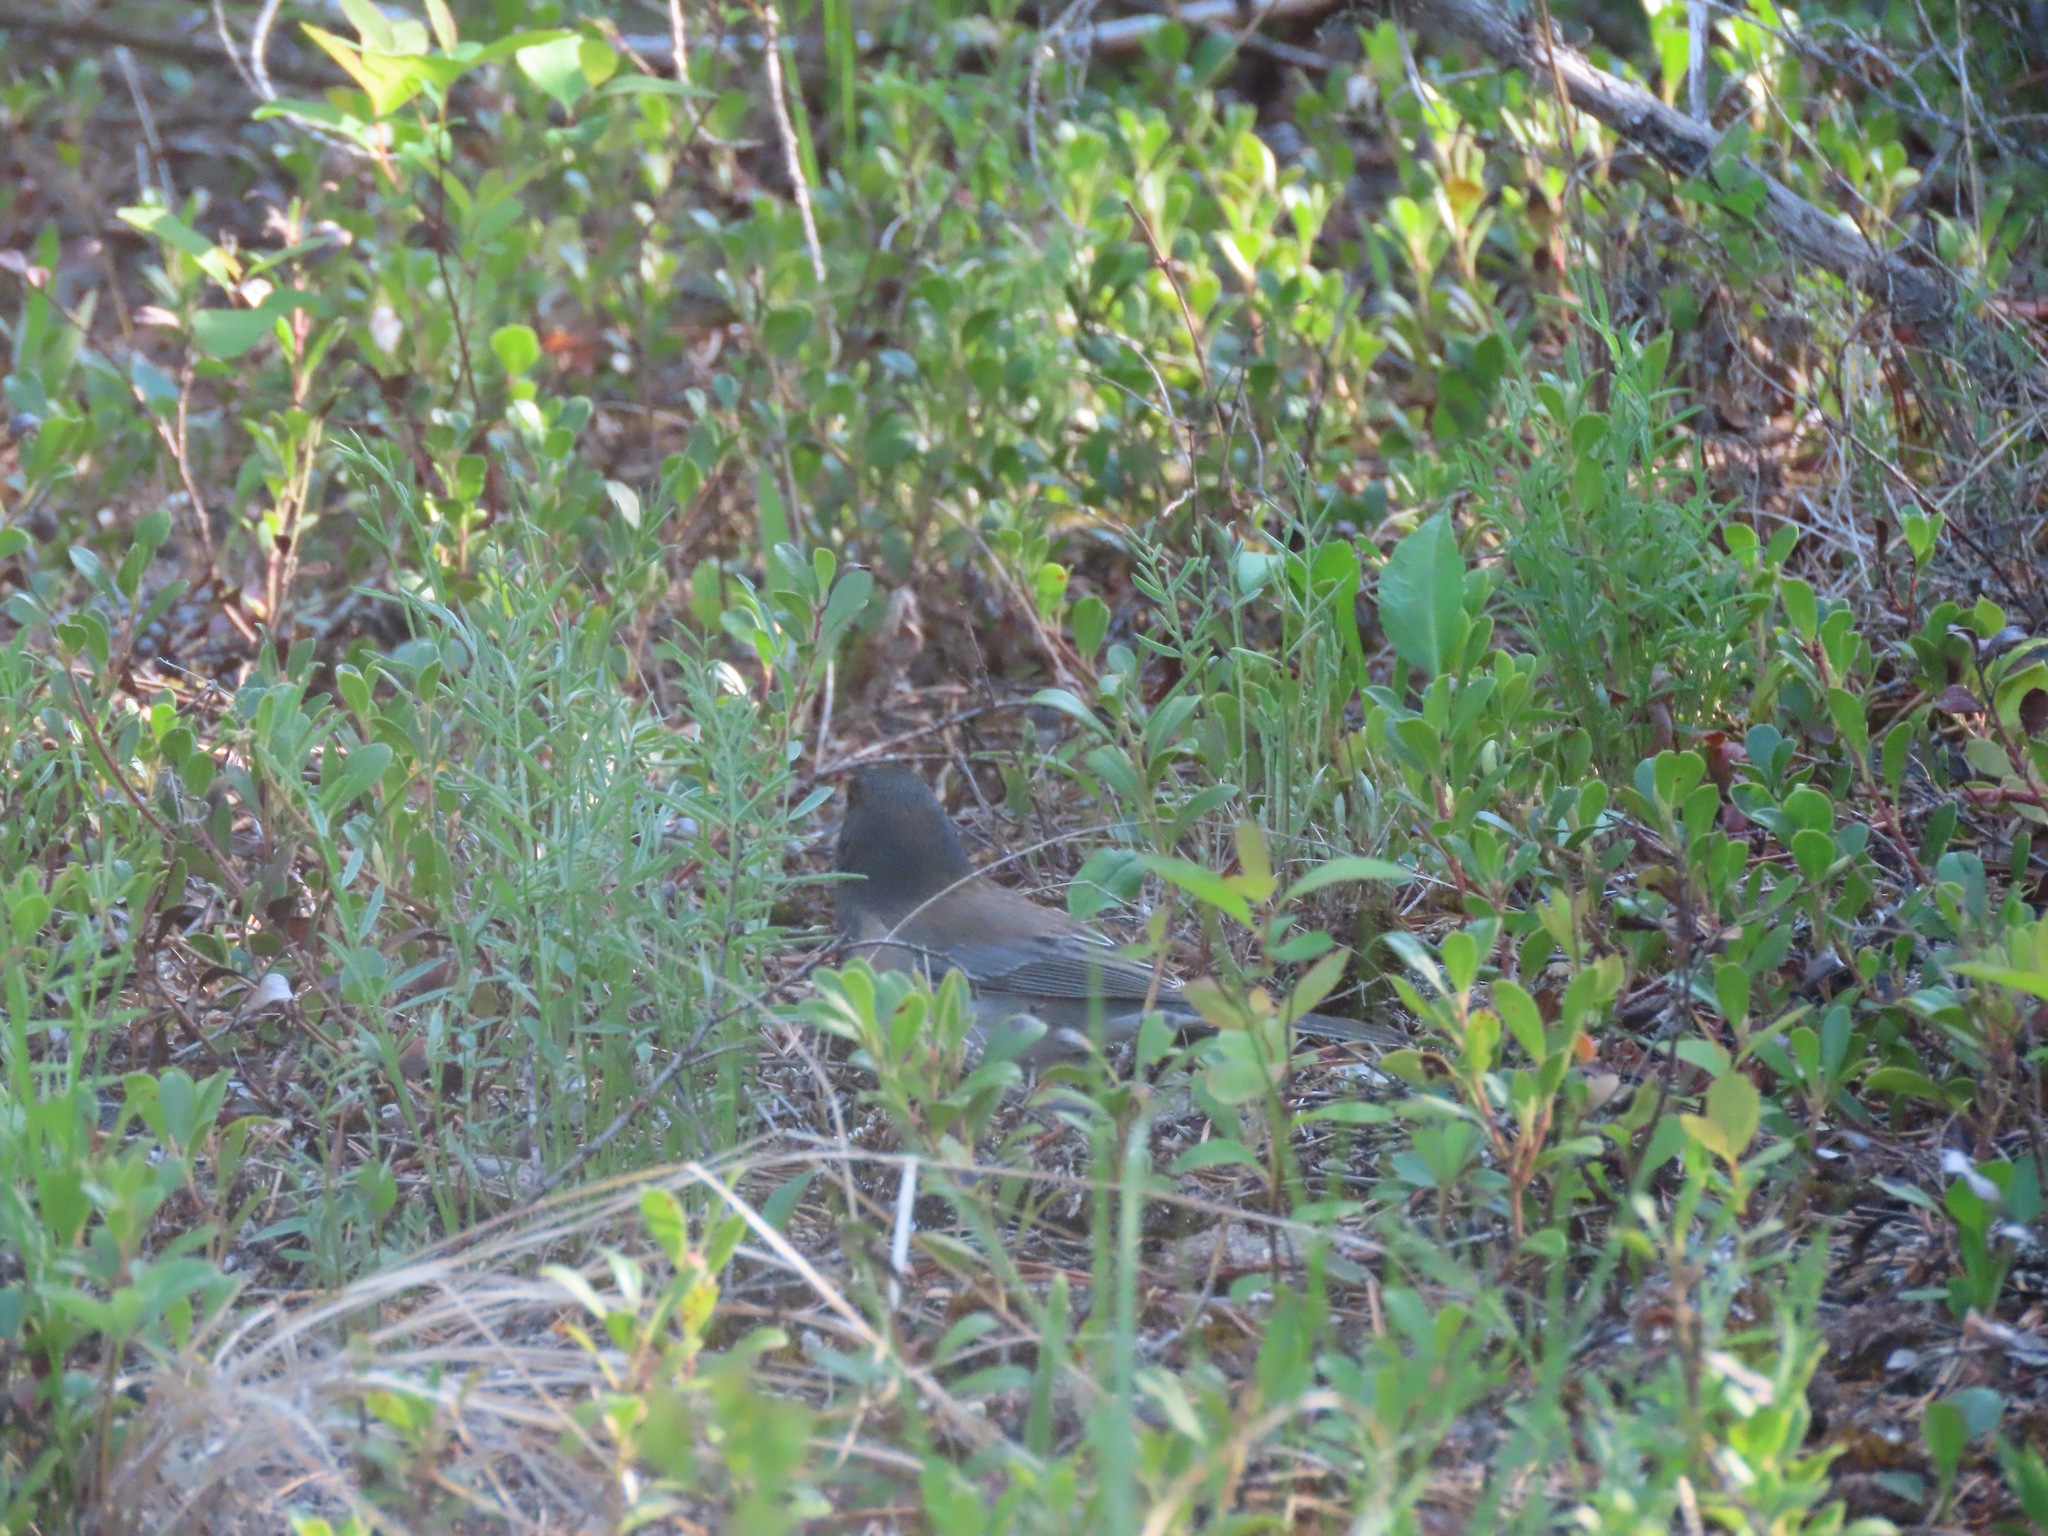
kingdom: Animalia
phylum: Chordata
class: Aves
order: Passeriformes
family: Passerellidae
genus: Junco
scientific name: Junco hyemalis
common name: Dark-eyed junco
